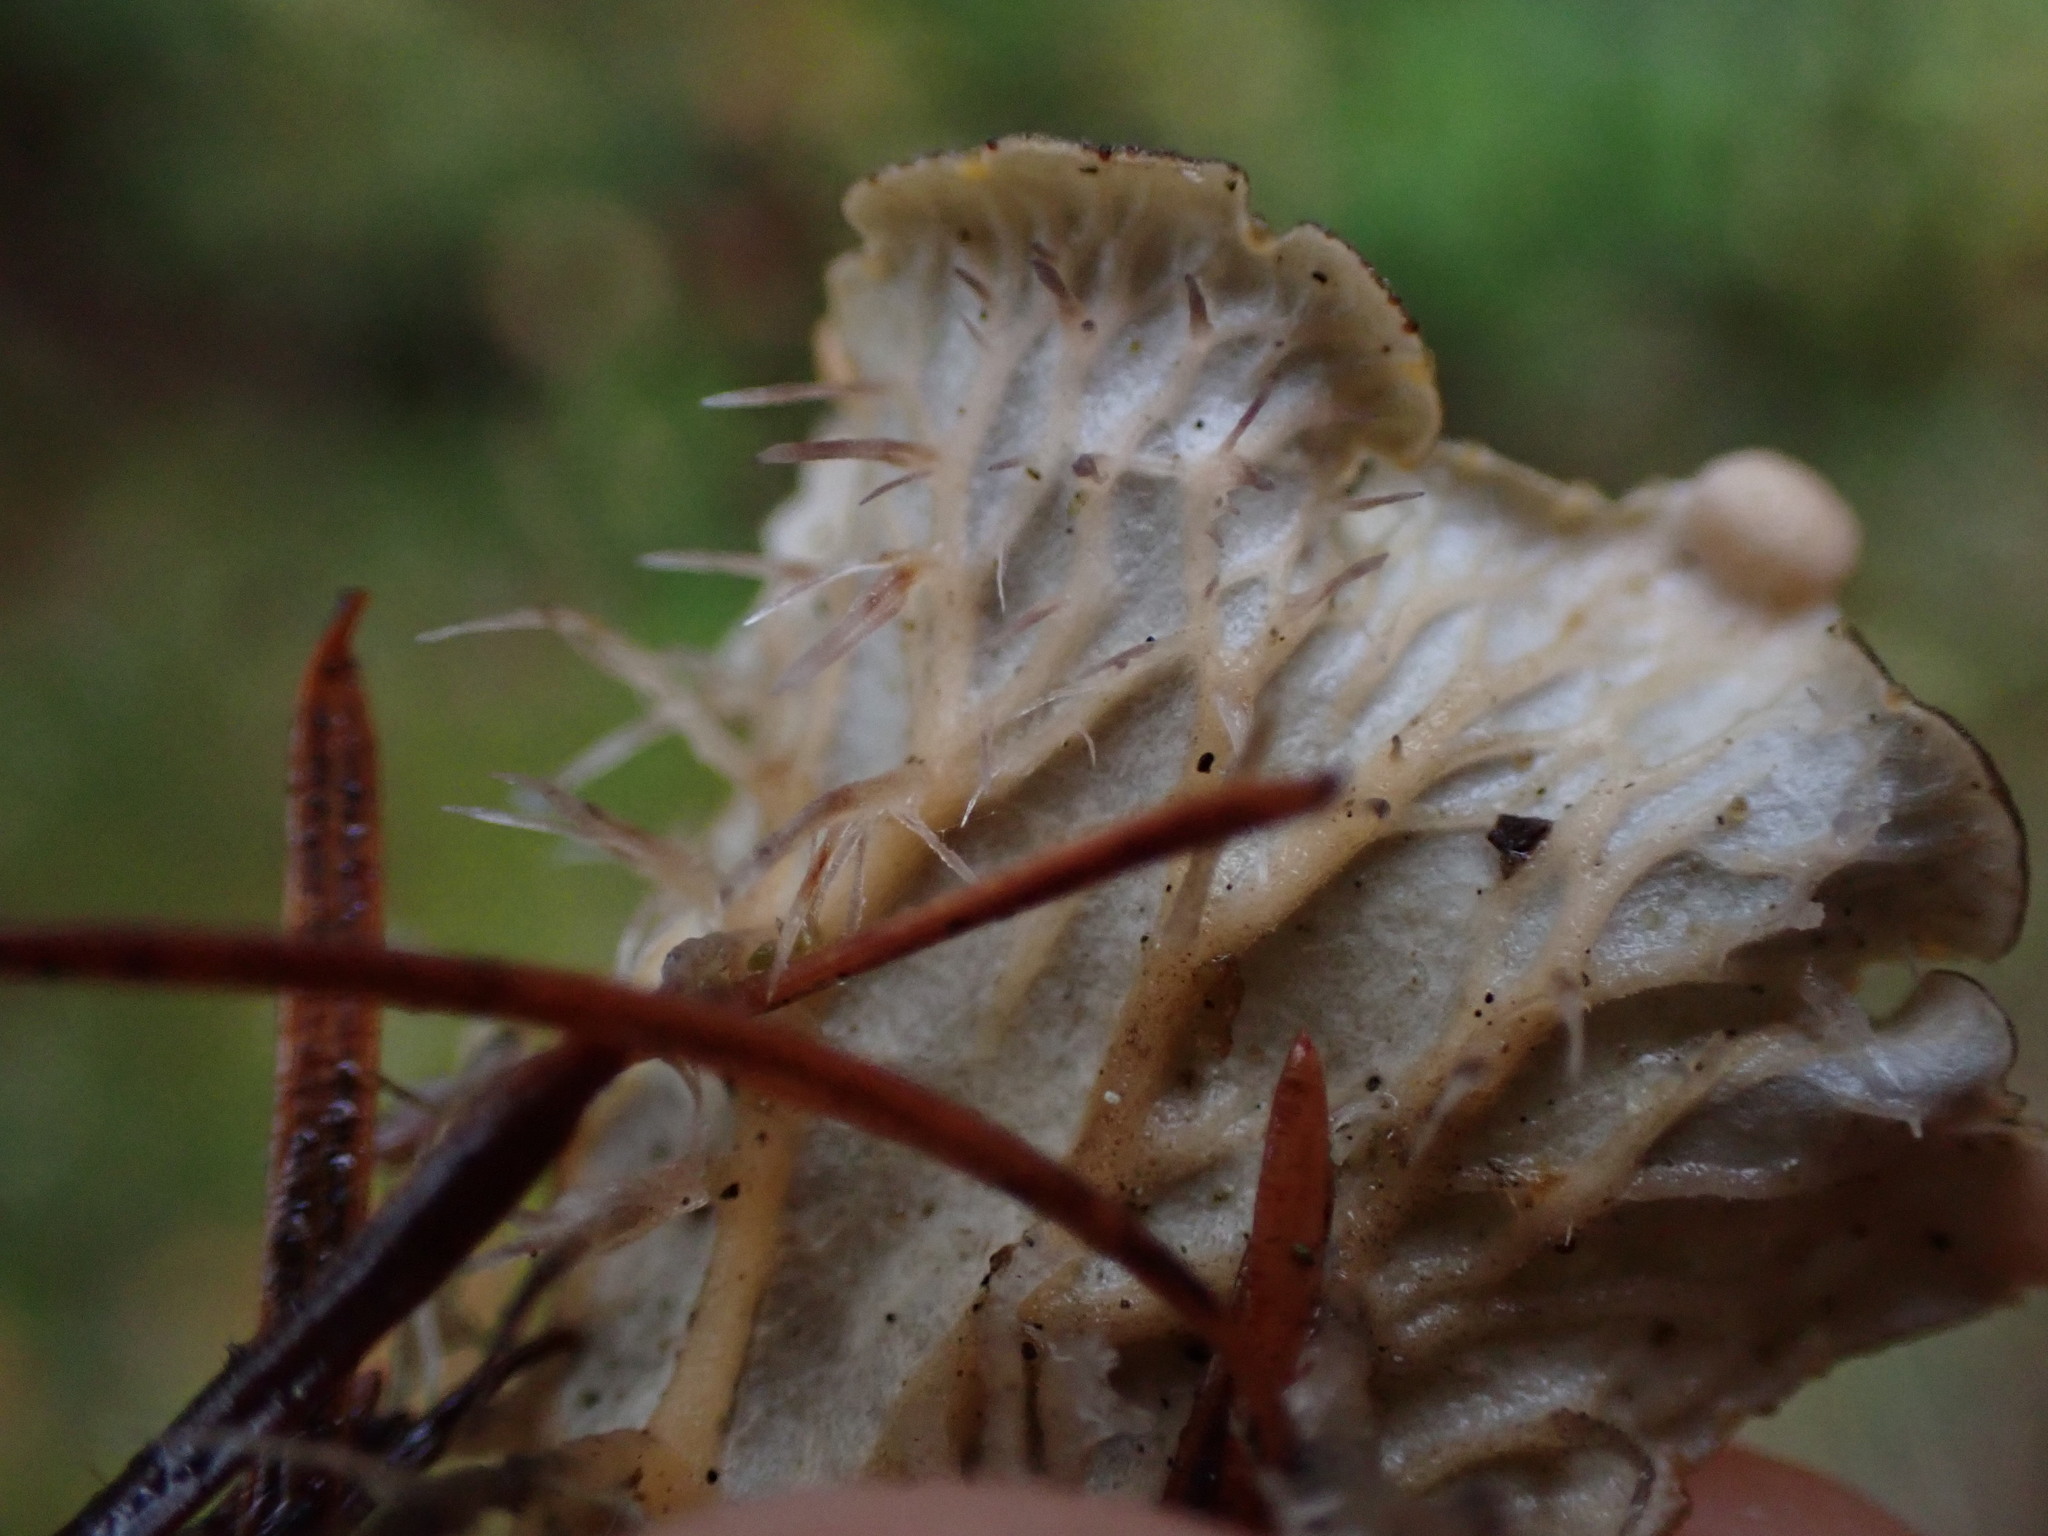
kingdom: Fungi
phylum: Ascomycota
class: Lecanoromycetes
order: Peltigerales
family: Peltigeraceae
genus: Peltigera
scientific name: Peltigera membranacea
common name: Membranous pelt lichen
